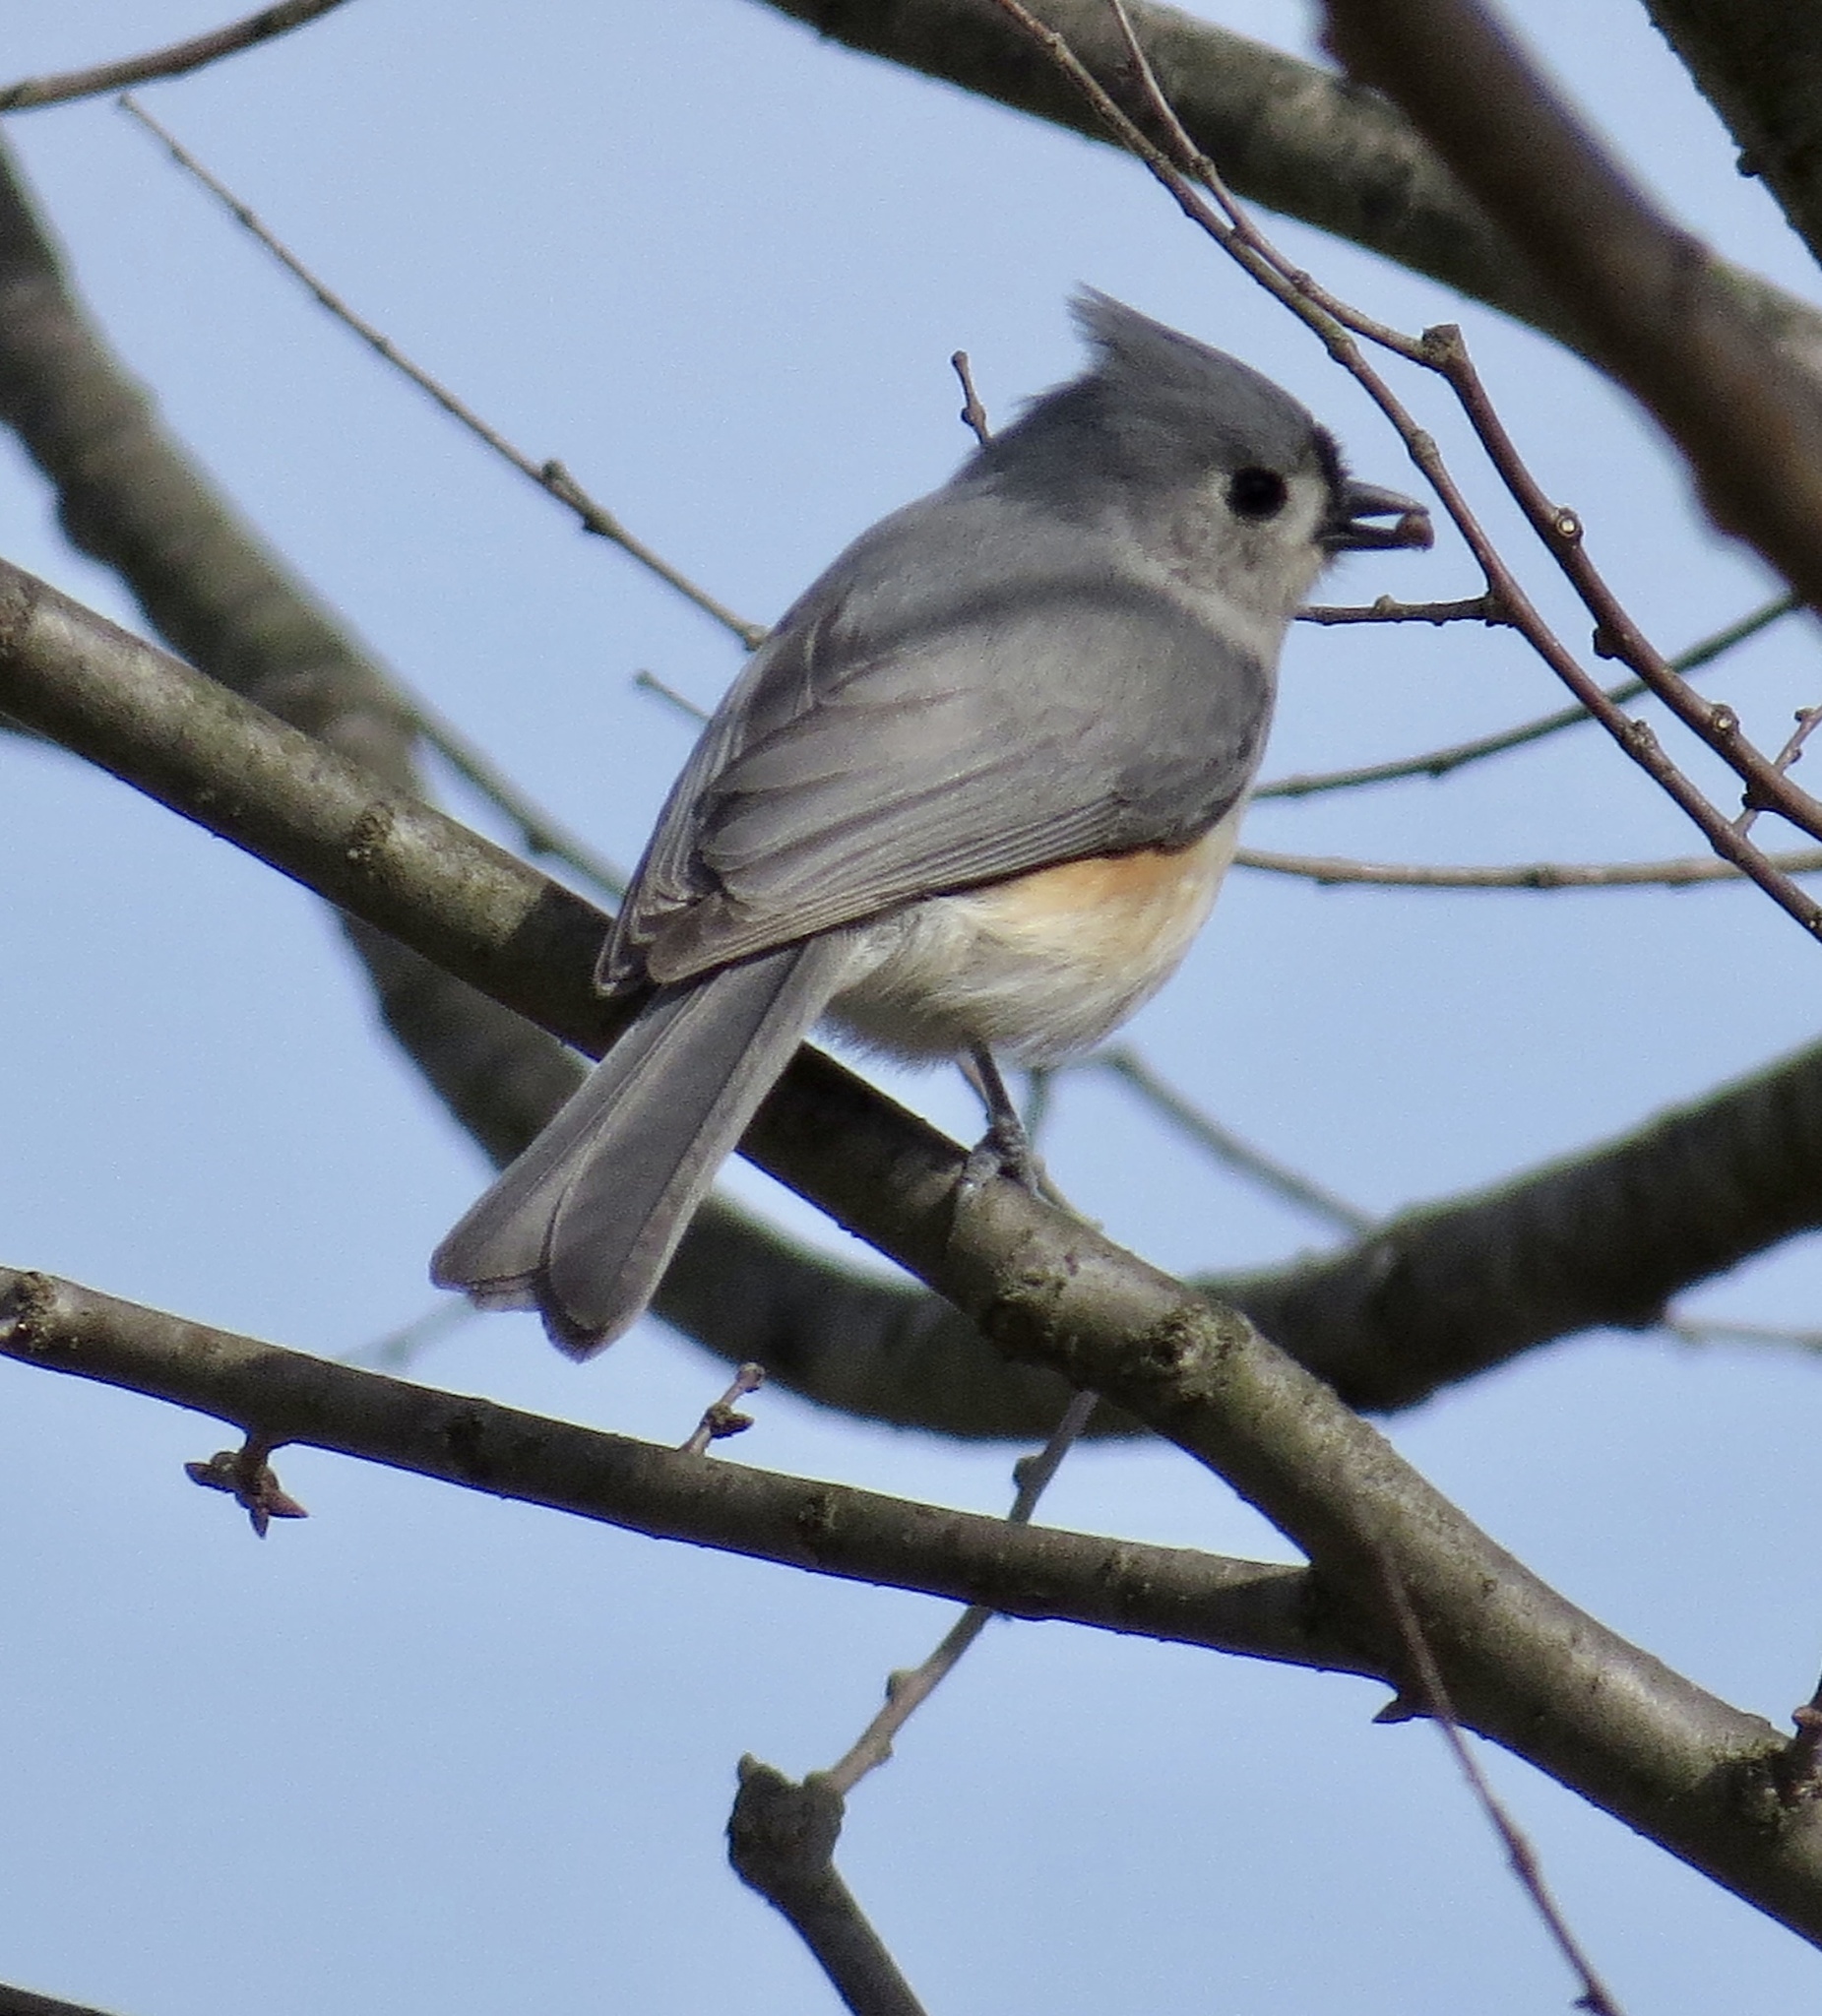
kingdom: Animalia
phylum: Chordata
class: Aves
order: Passeriformes
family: Paridae
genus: Baeolophus
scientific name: Baeolophus bicolor
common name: Tufted titmouse
